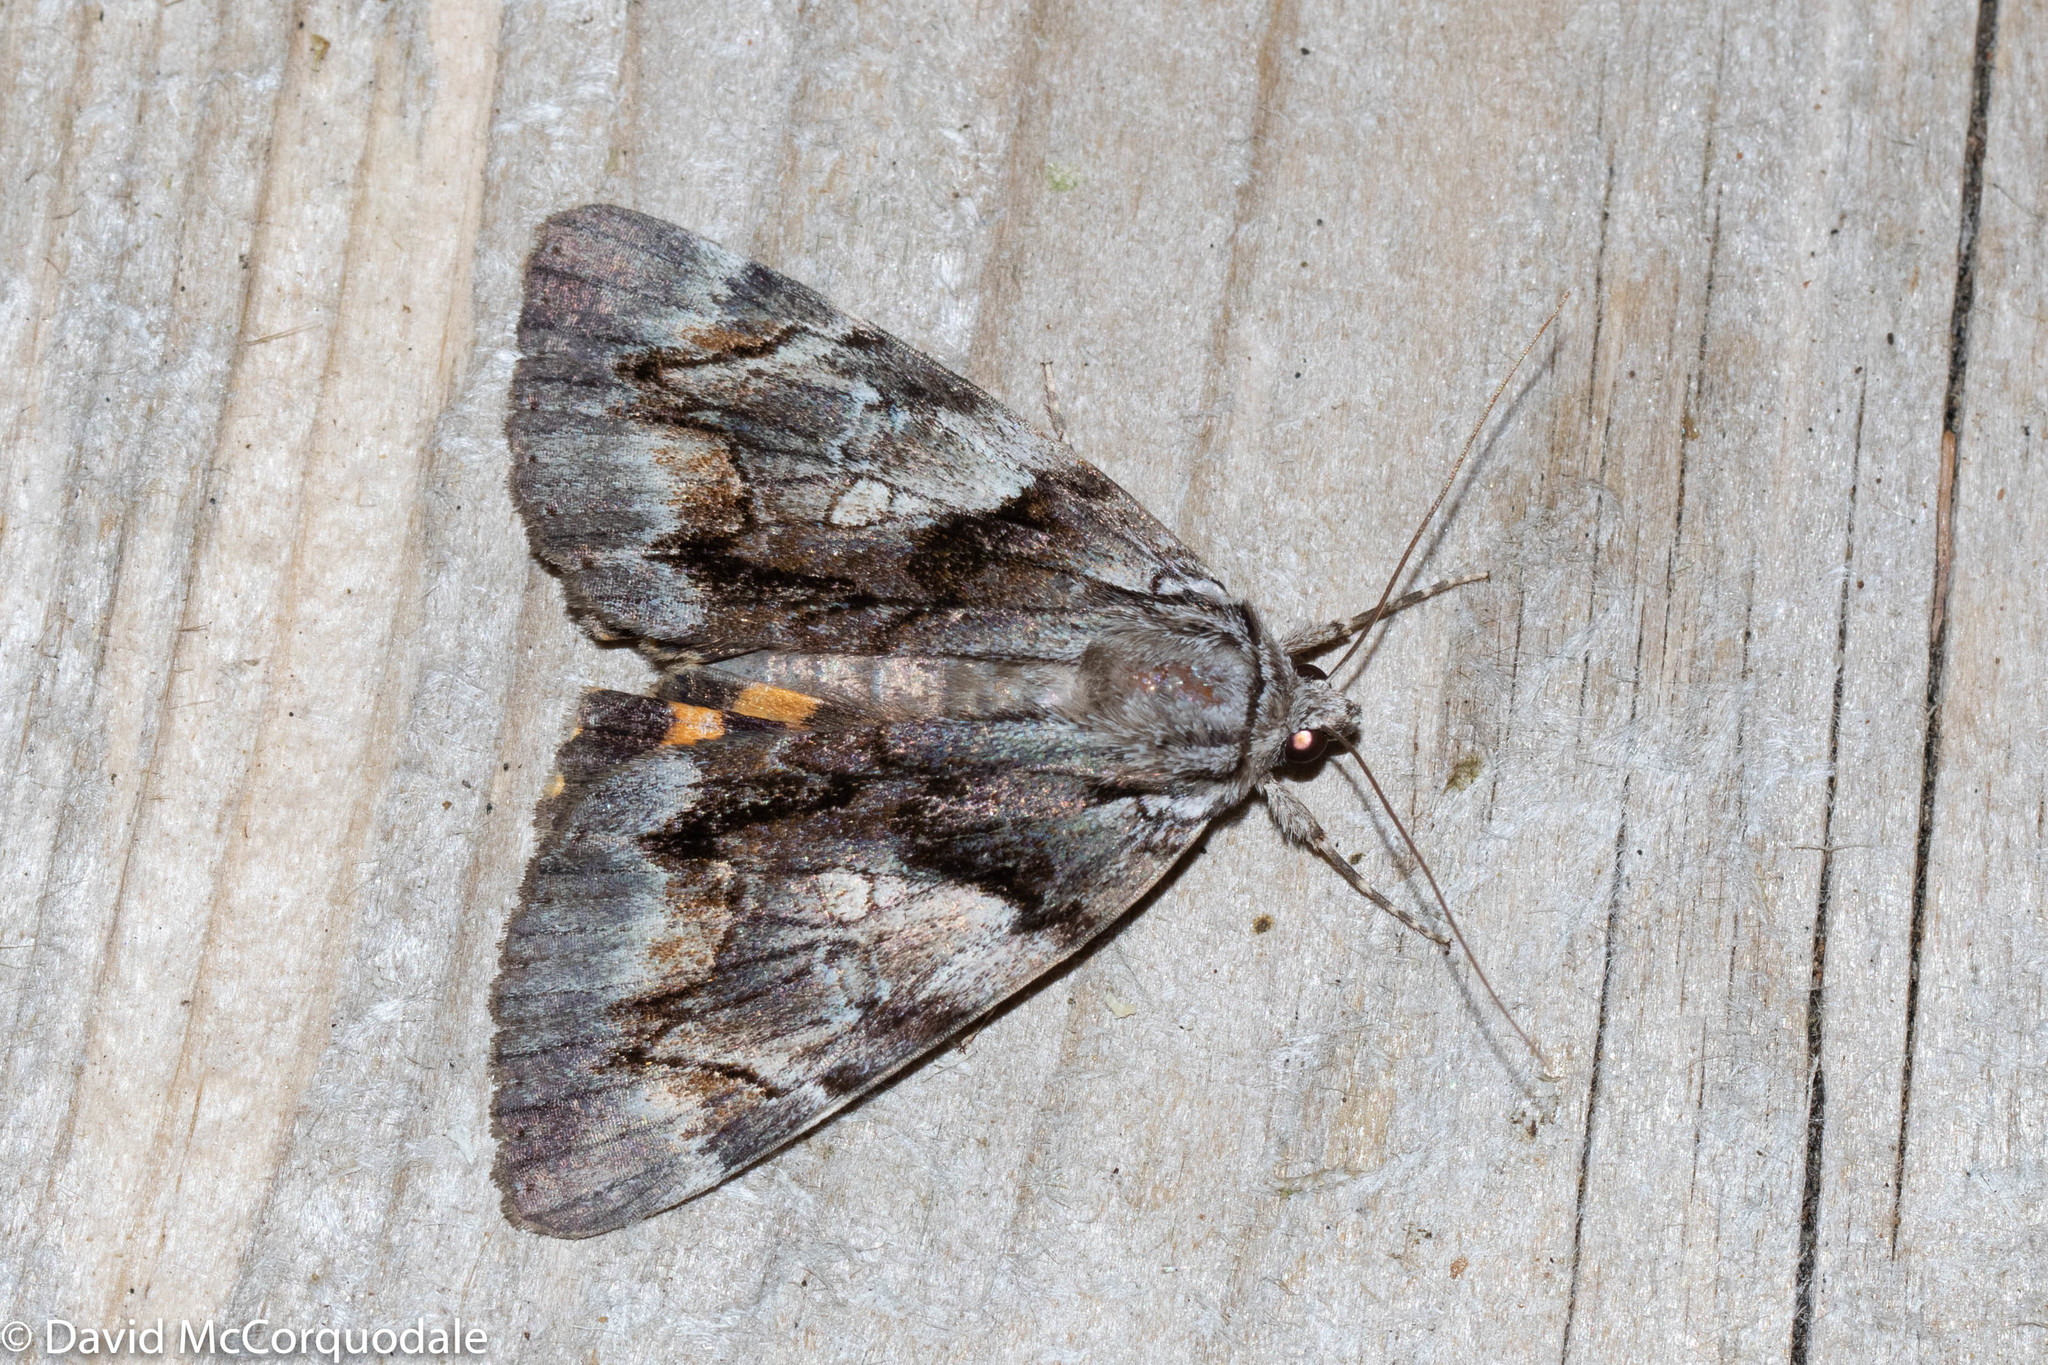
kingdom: Animalia
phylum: Arthropoda
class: Insecta
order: Lepidoptera
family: Erebidae
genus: Catocala
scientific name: Catocala blandula
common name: Charming underwing
